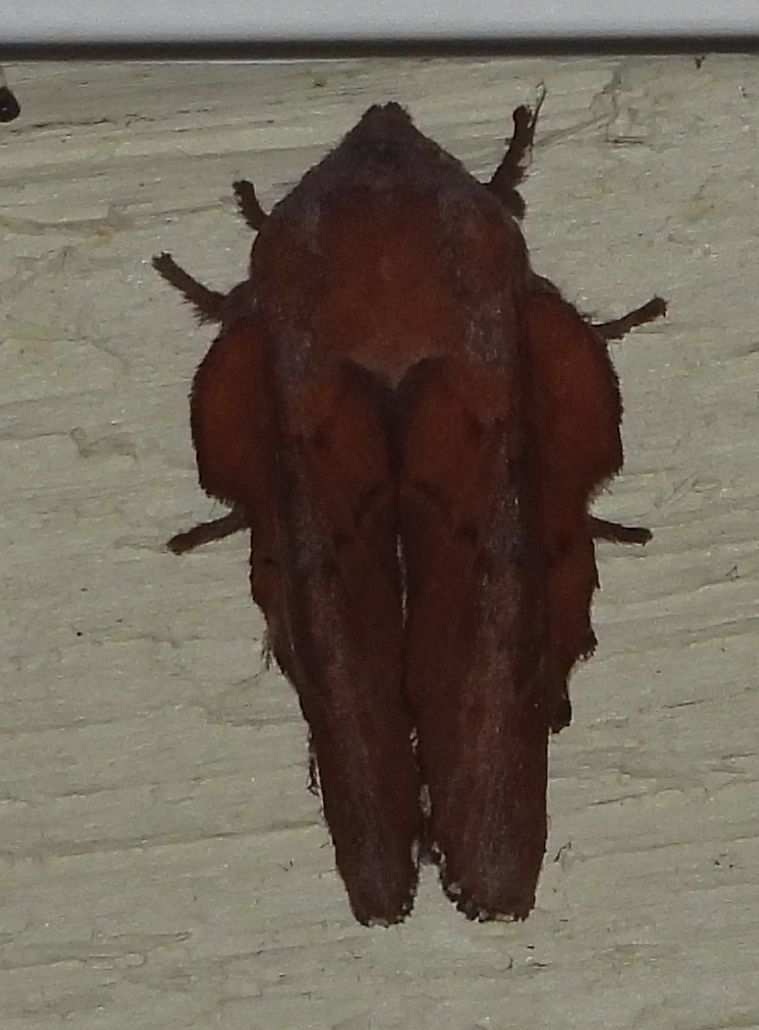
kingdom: Animalia
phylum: Arthropoda
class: Insecta
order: Lepidoptera
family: Lasiocampidae
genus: Phyllodesma
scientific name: Phyllodesma americana
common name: American lappet moth
